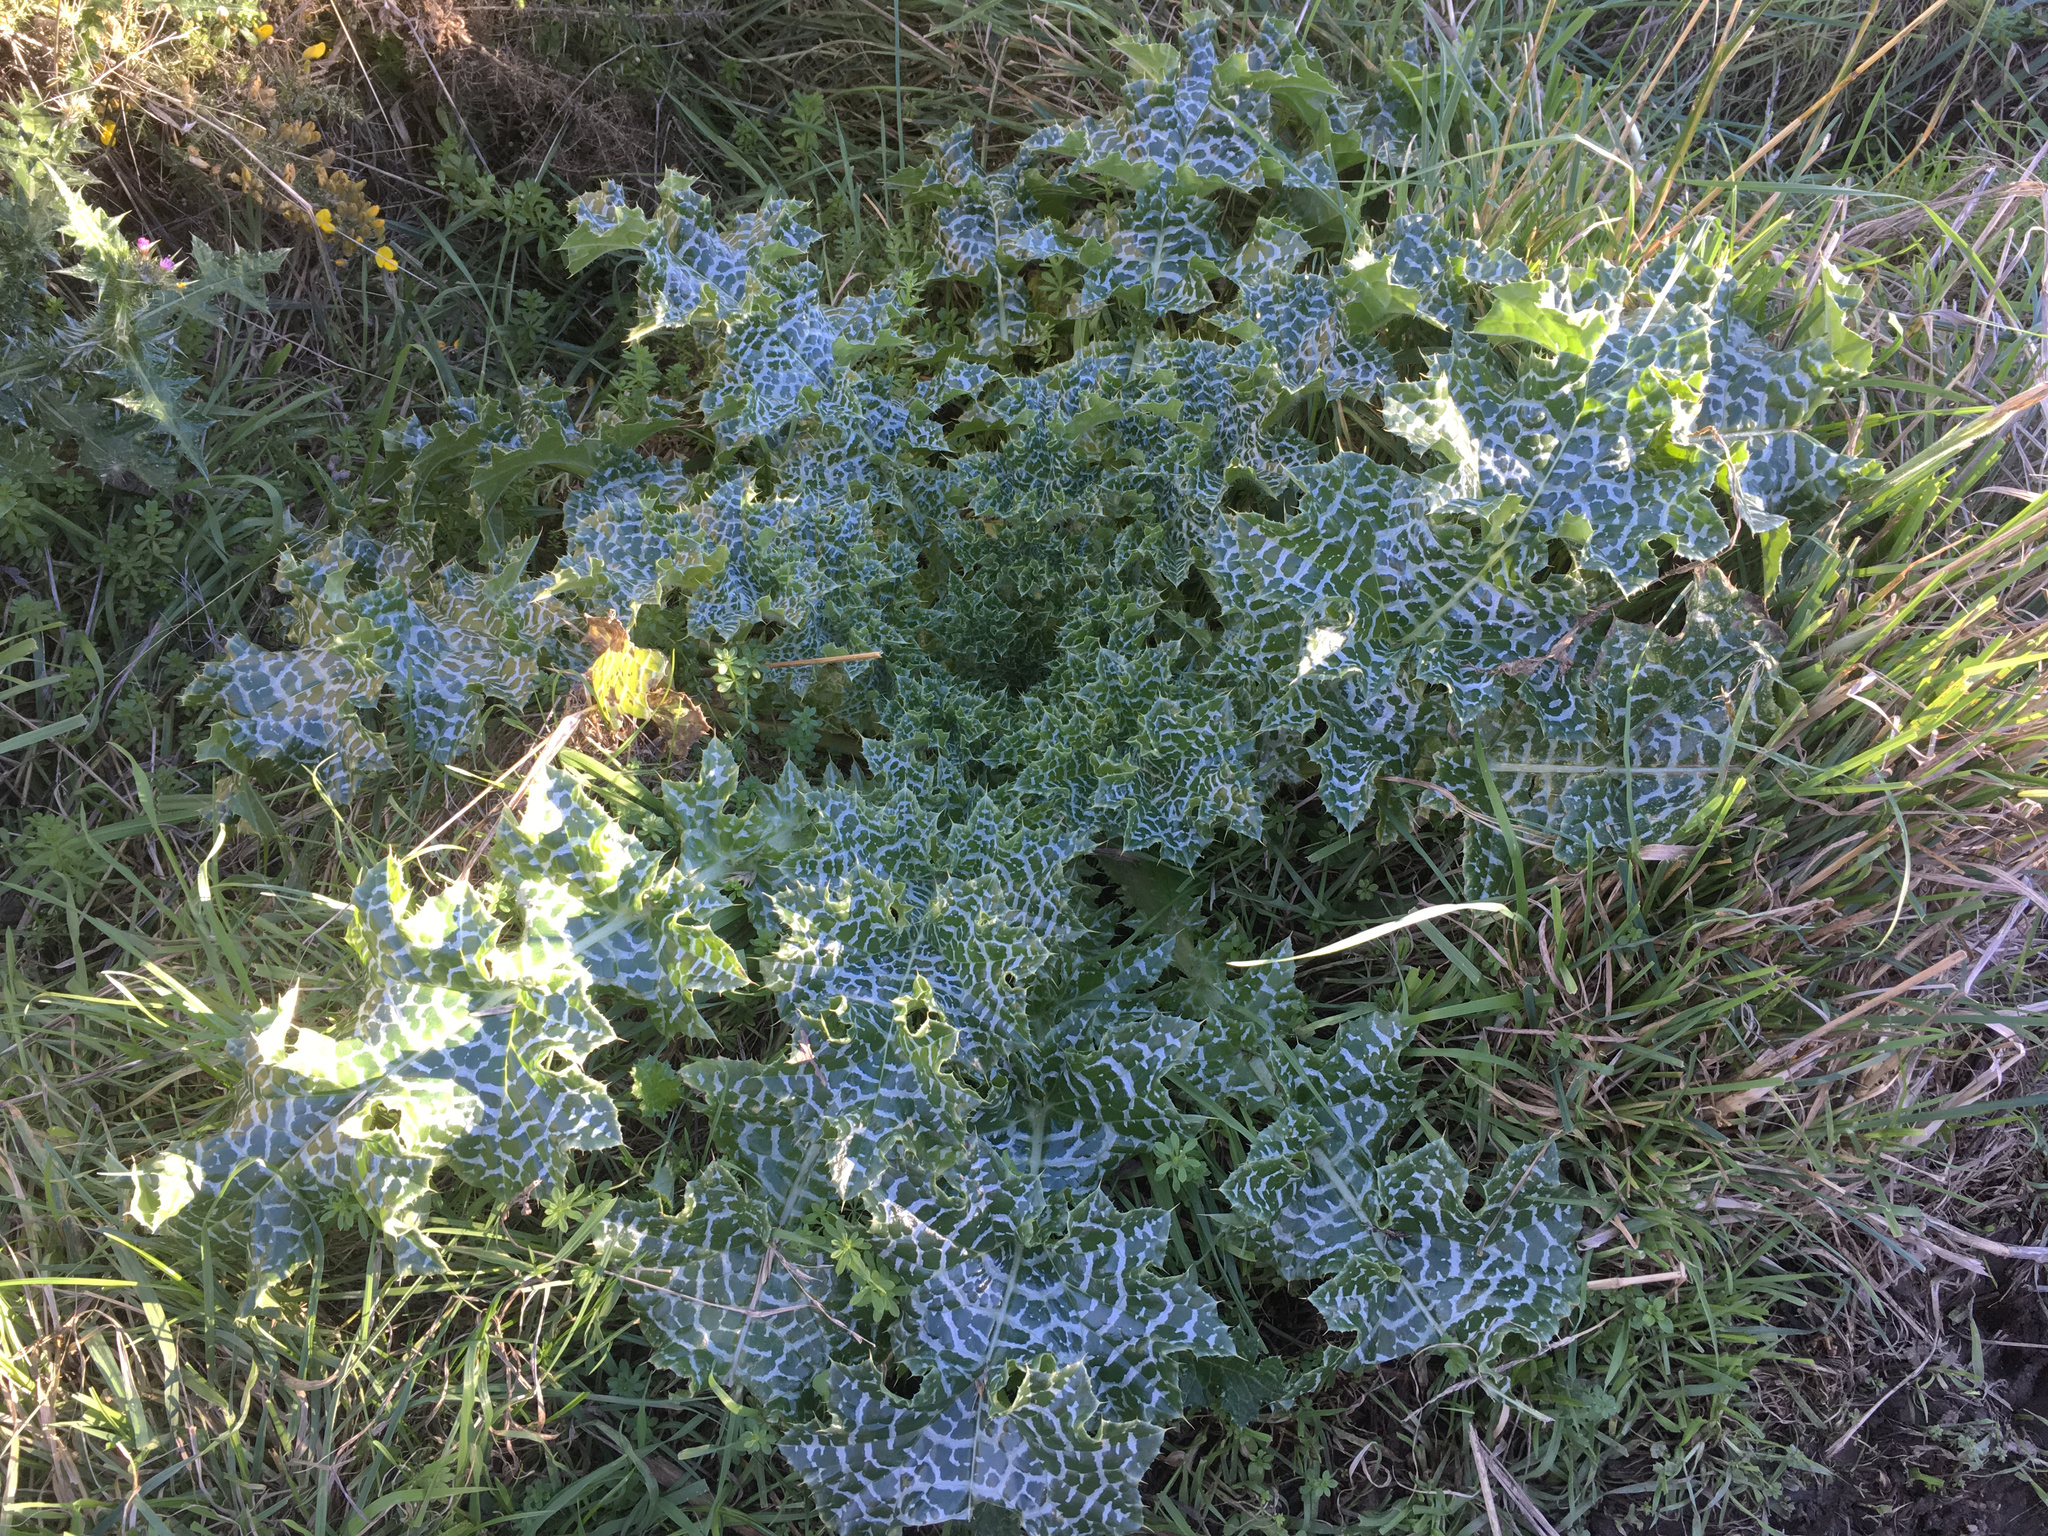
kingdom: Plantae
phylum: Tracheophyta
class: Magnoliopsida
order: Asterales
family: Asteraceae
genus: Silybum
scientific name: Silybum marianum
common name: Milk thistle
